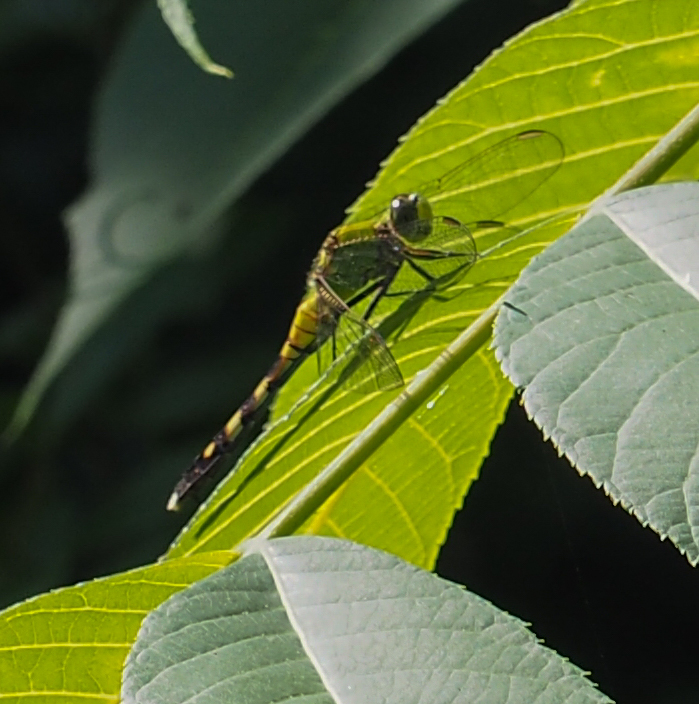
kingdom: Animalia
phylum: Arthropoda
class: Insecta
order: Odonata
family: Libellulidae
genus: Erythemis
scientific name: Erythemis simplicicollis
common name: Eastern pondhawk
